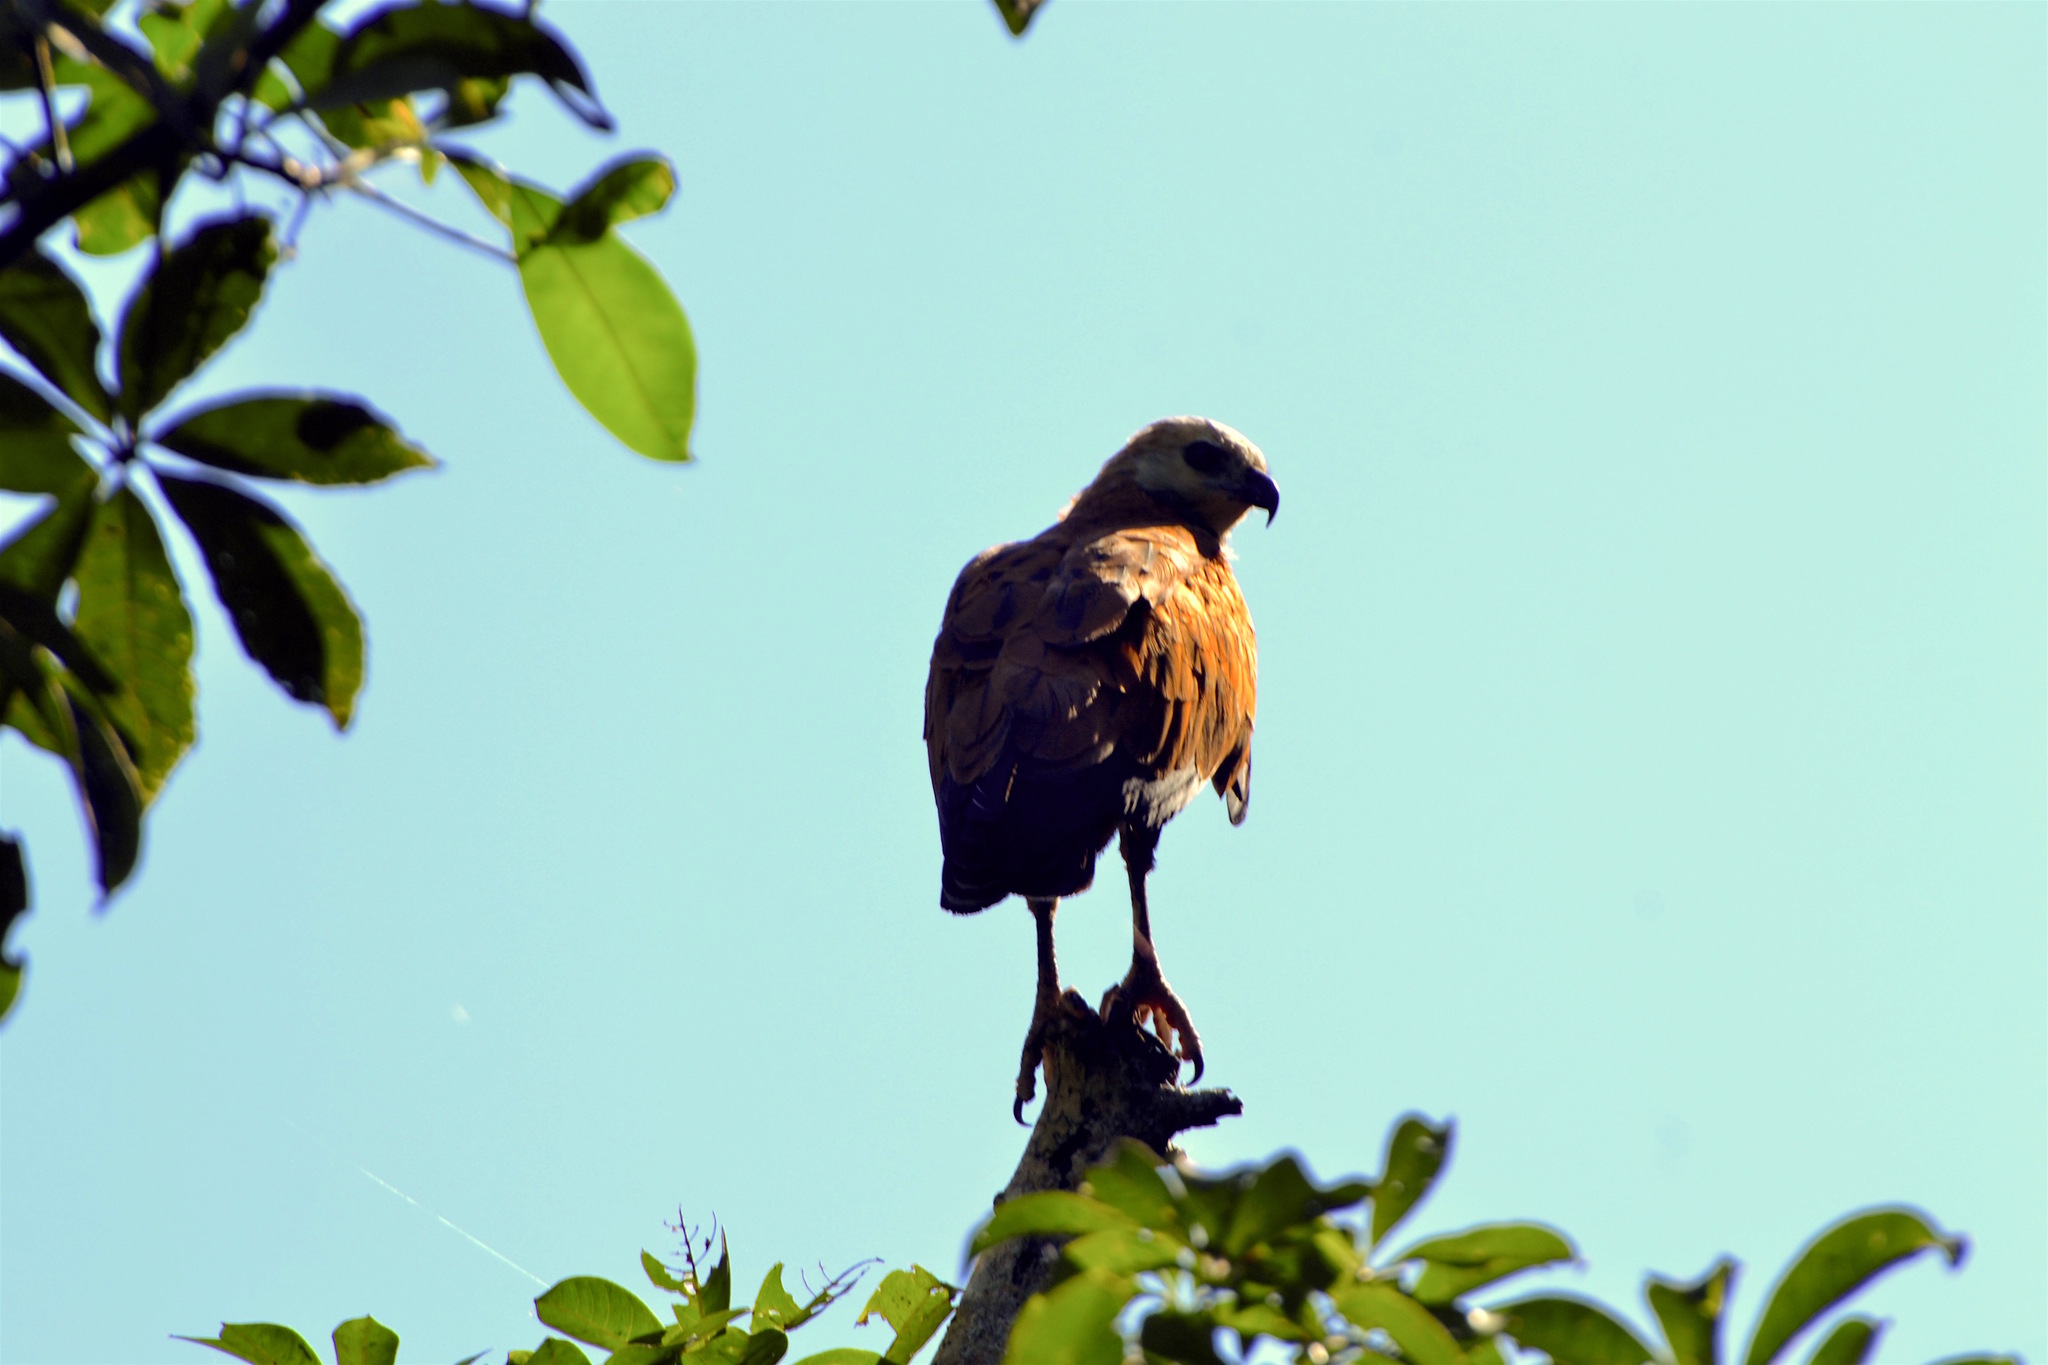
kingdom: Animalia
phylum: Chordata
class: Aves
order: Accipitriformes
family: Accipitridae
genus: Busarellus
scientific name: Busarellus nigricollis
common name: Black-collared hawk
